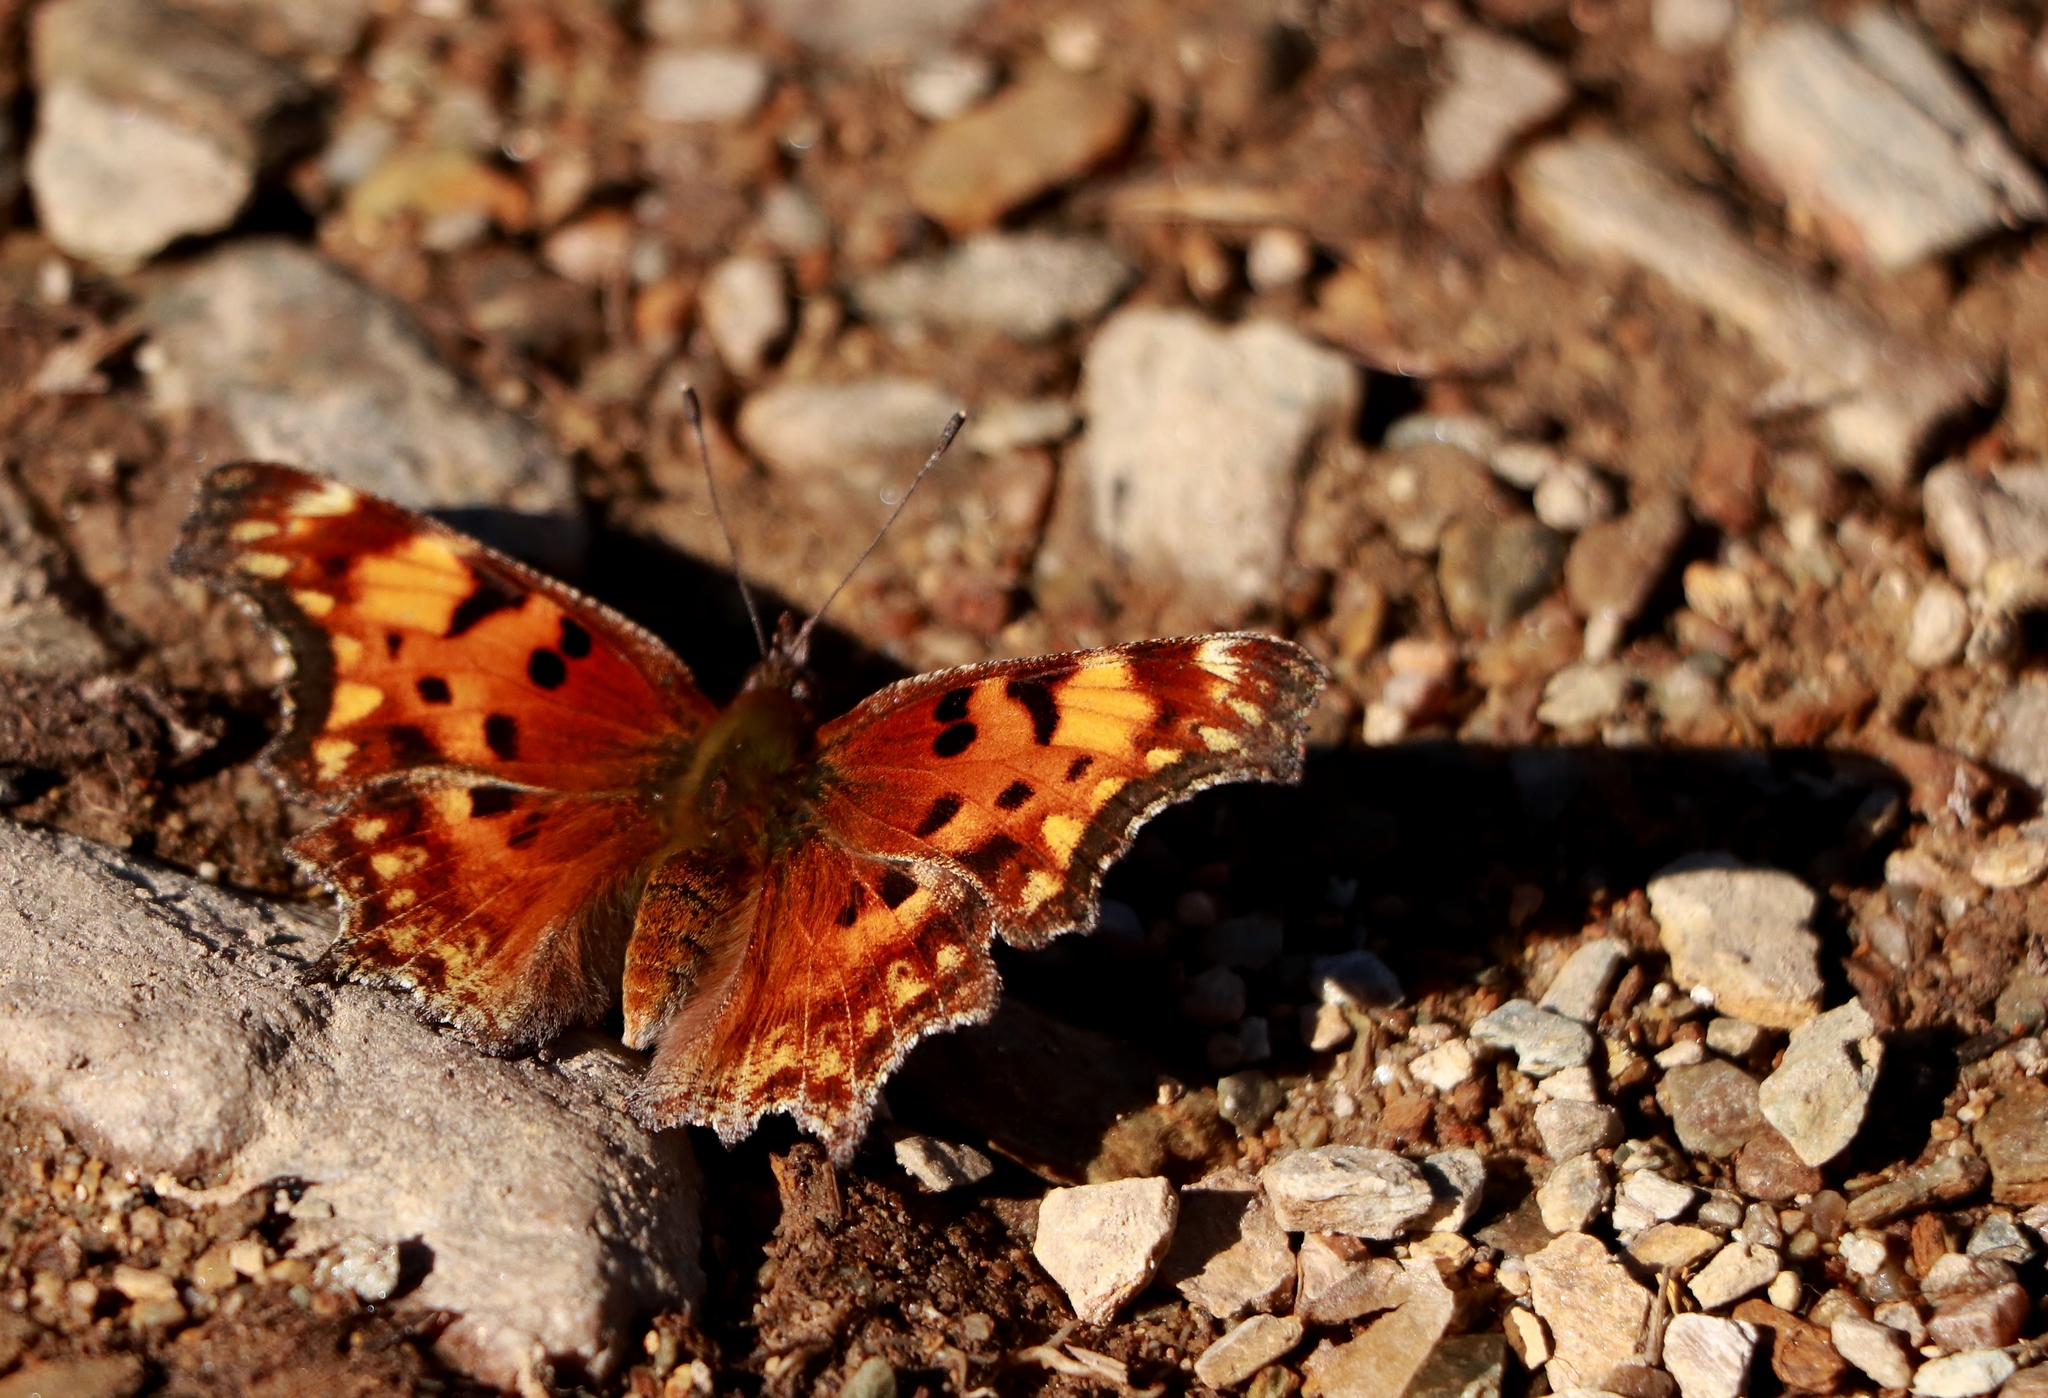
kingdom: Animalia
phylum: Arthropoda
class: Insecta
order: Lepidoptera
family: Nymphalidae
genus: Polygonia
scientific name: Polygonia gracilis
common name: Hoary comma
